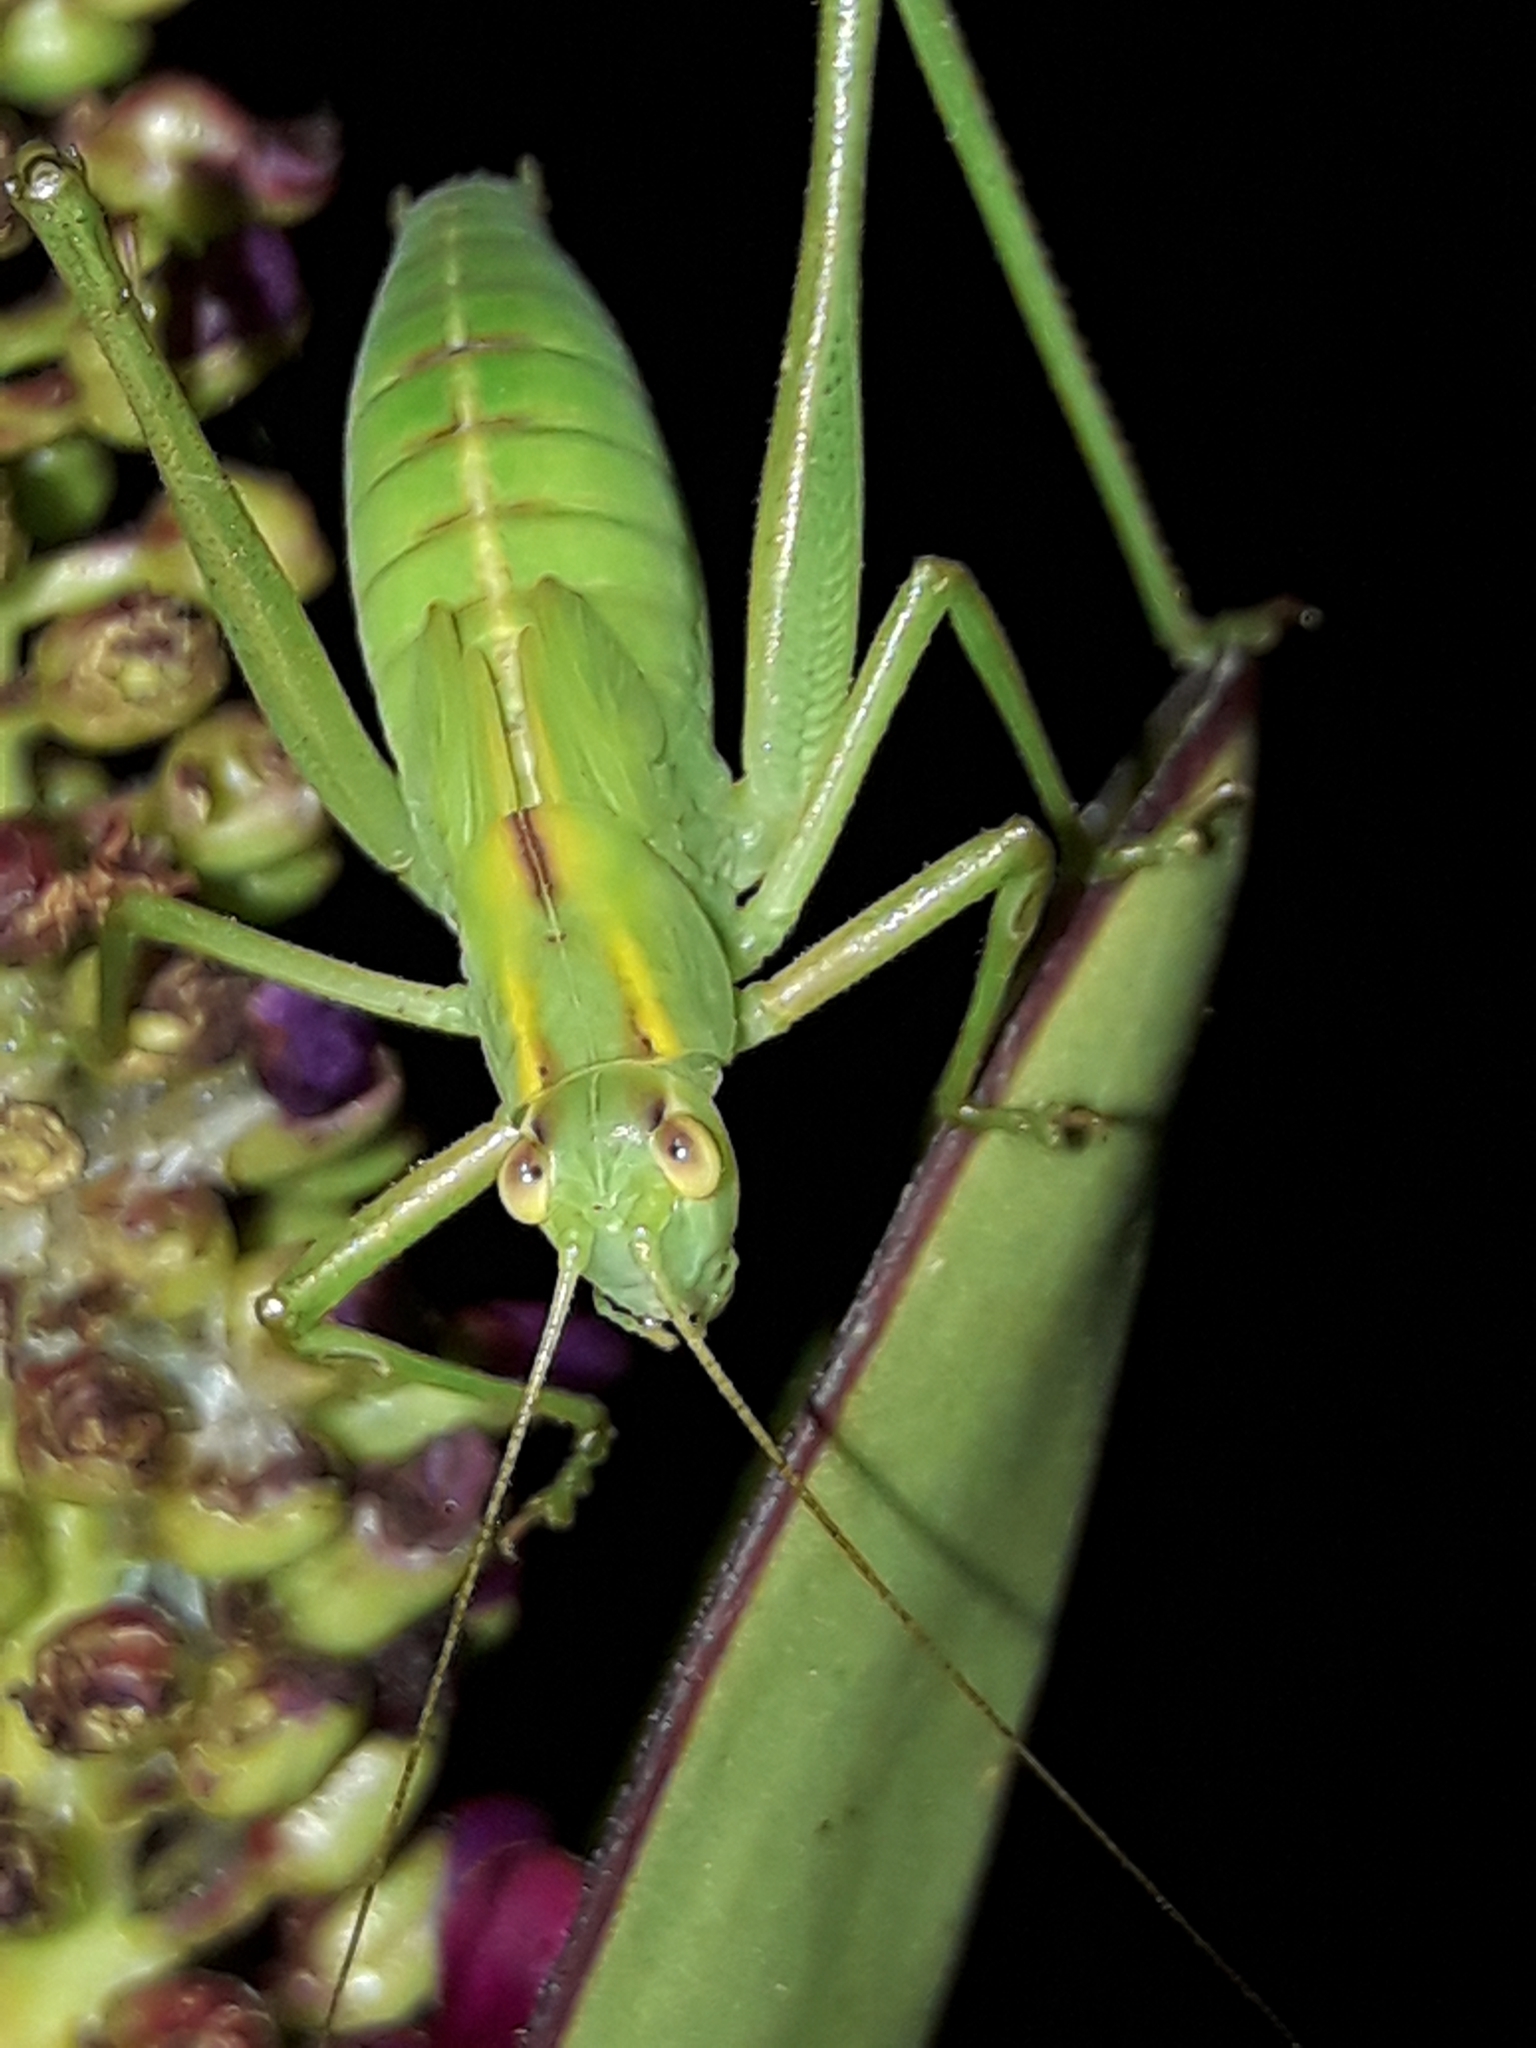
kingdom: Animalia
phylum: Arthropoda
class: Insecta
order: Orthoptera
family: Tettigoniidae
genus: Caedicia
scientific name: Caedicia simplex
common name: Common garden katydid
